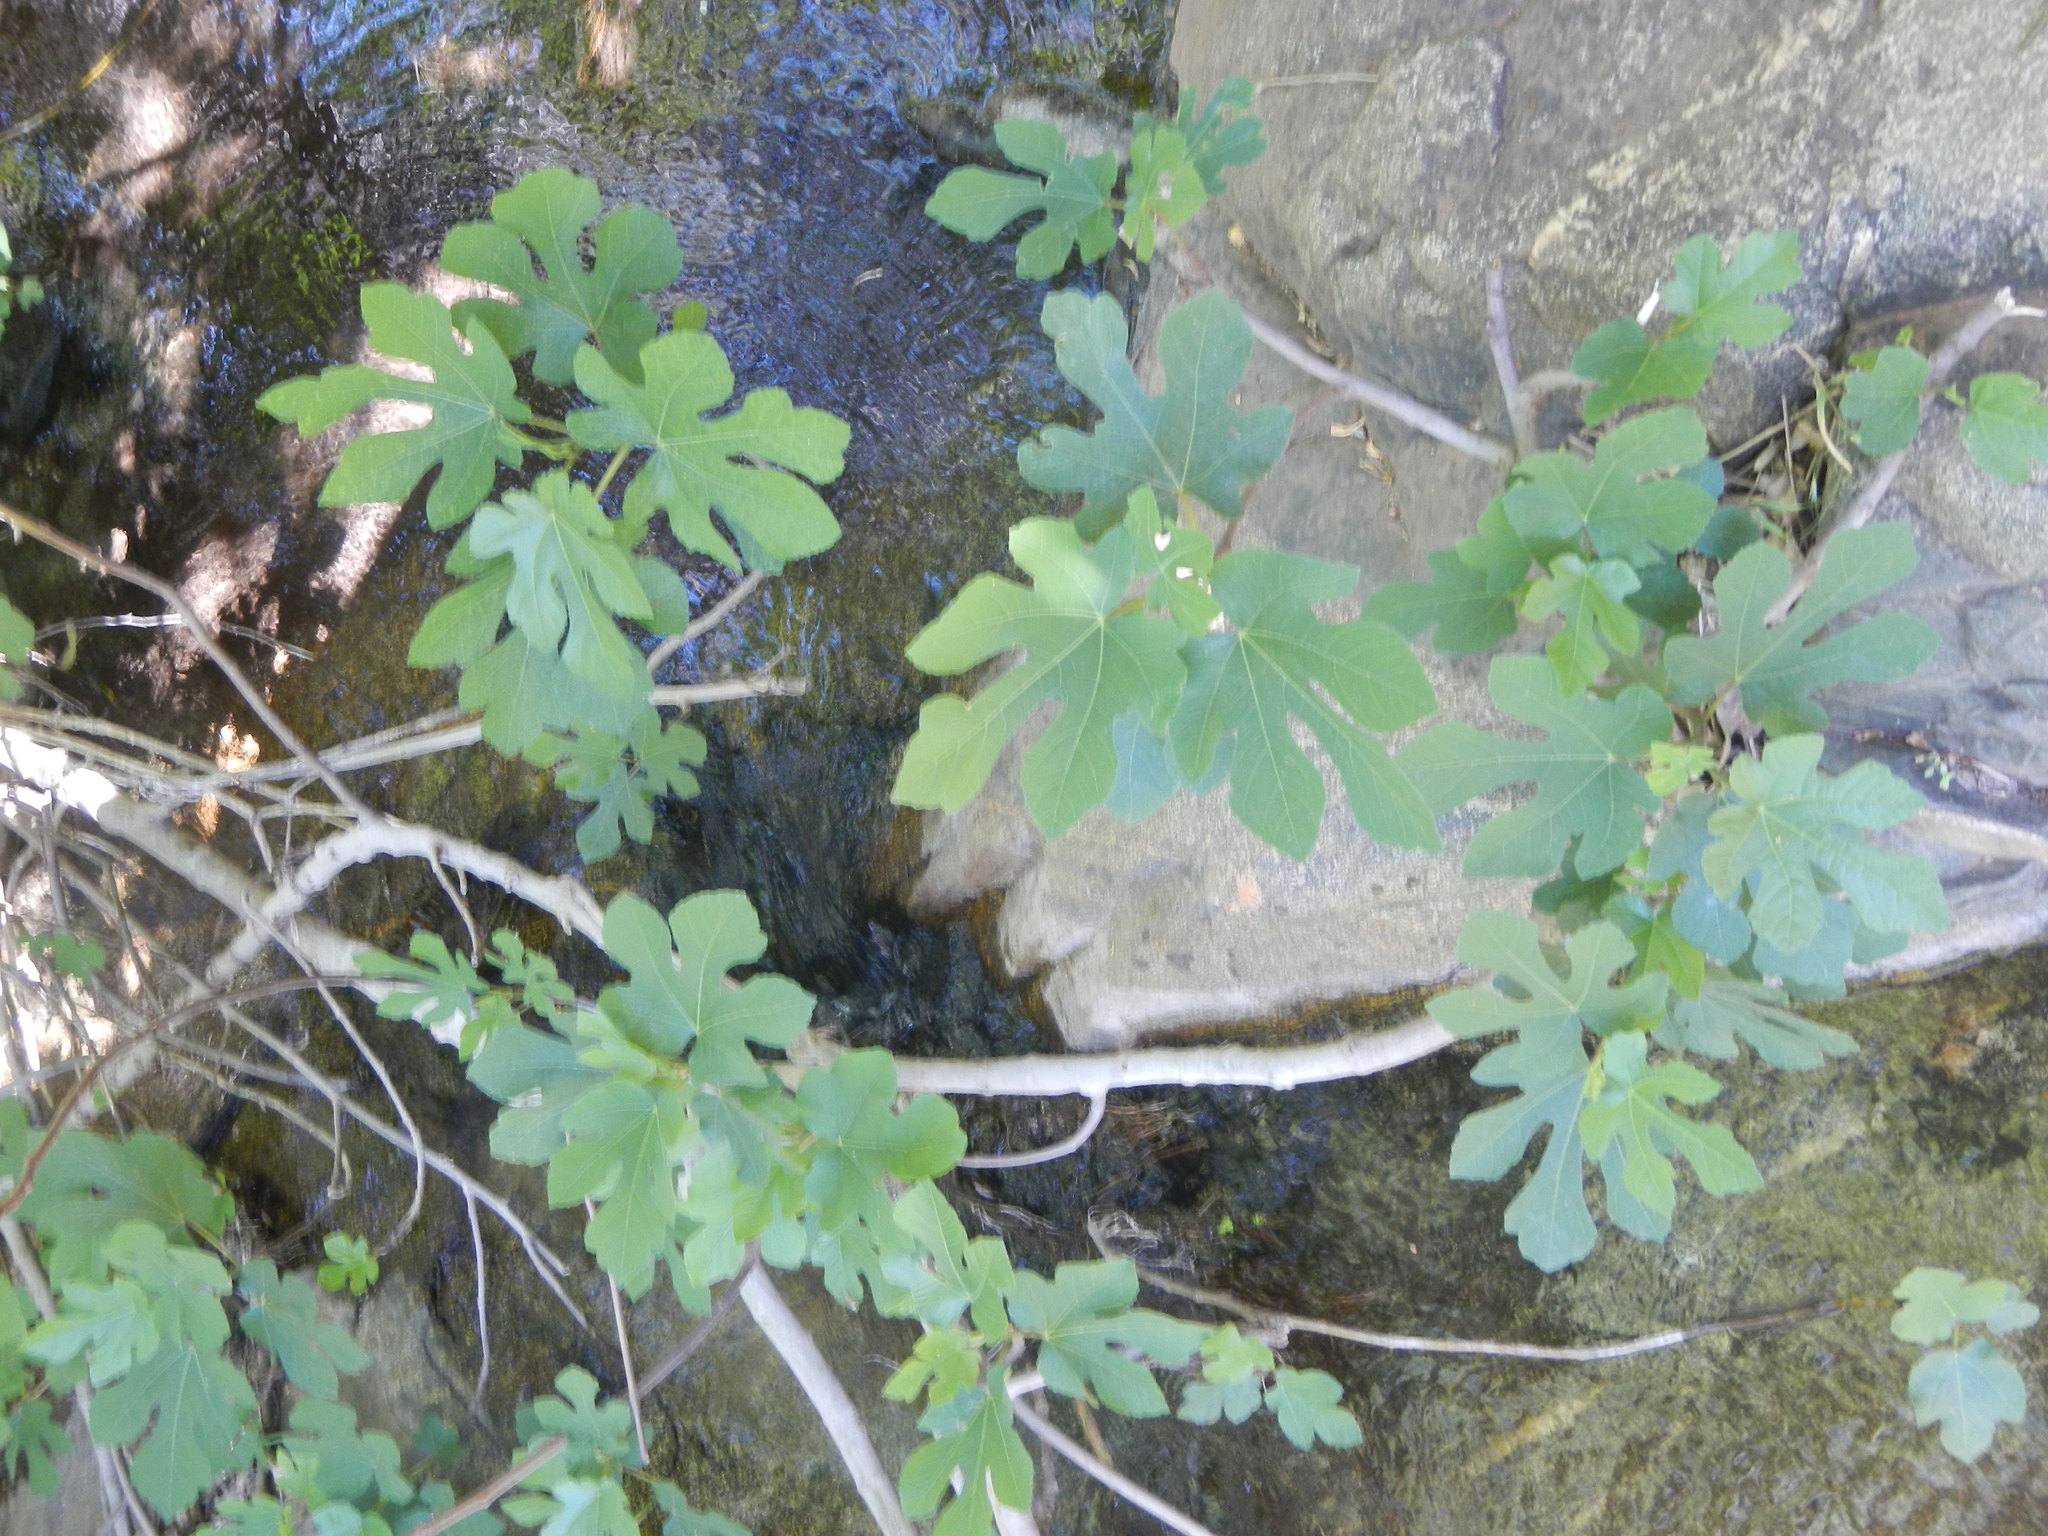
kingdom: Plantae
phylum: Tracheophyta
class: Magnoliopsida
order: Rosales
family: Moraceae
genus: Ficus
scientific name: Ficus carica
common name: Fig
